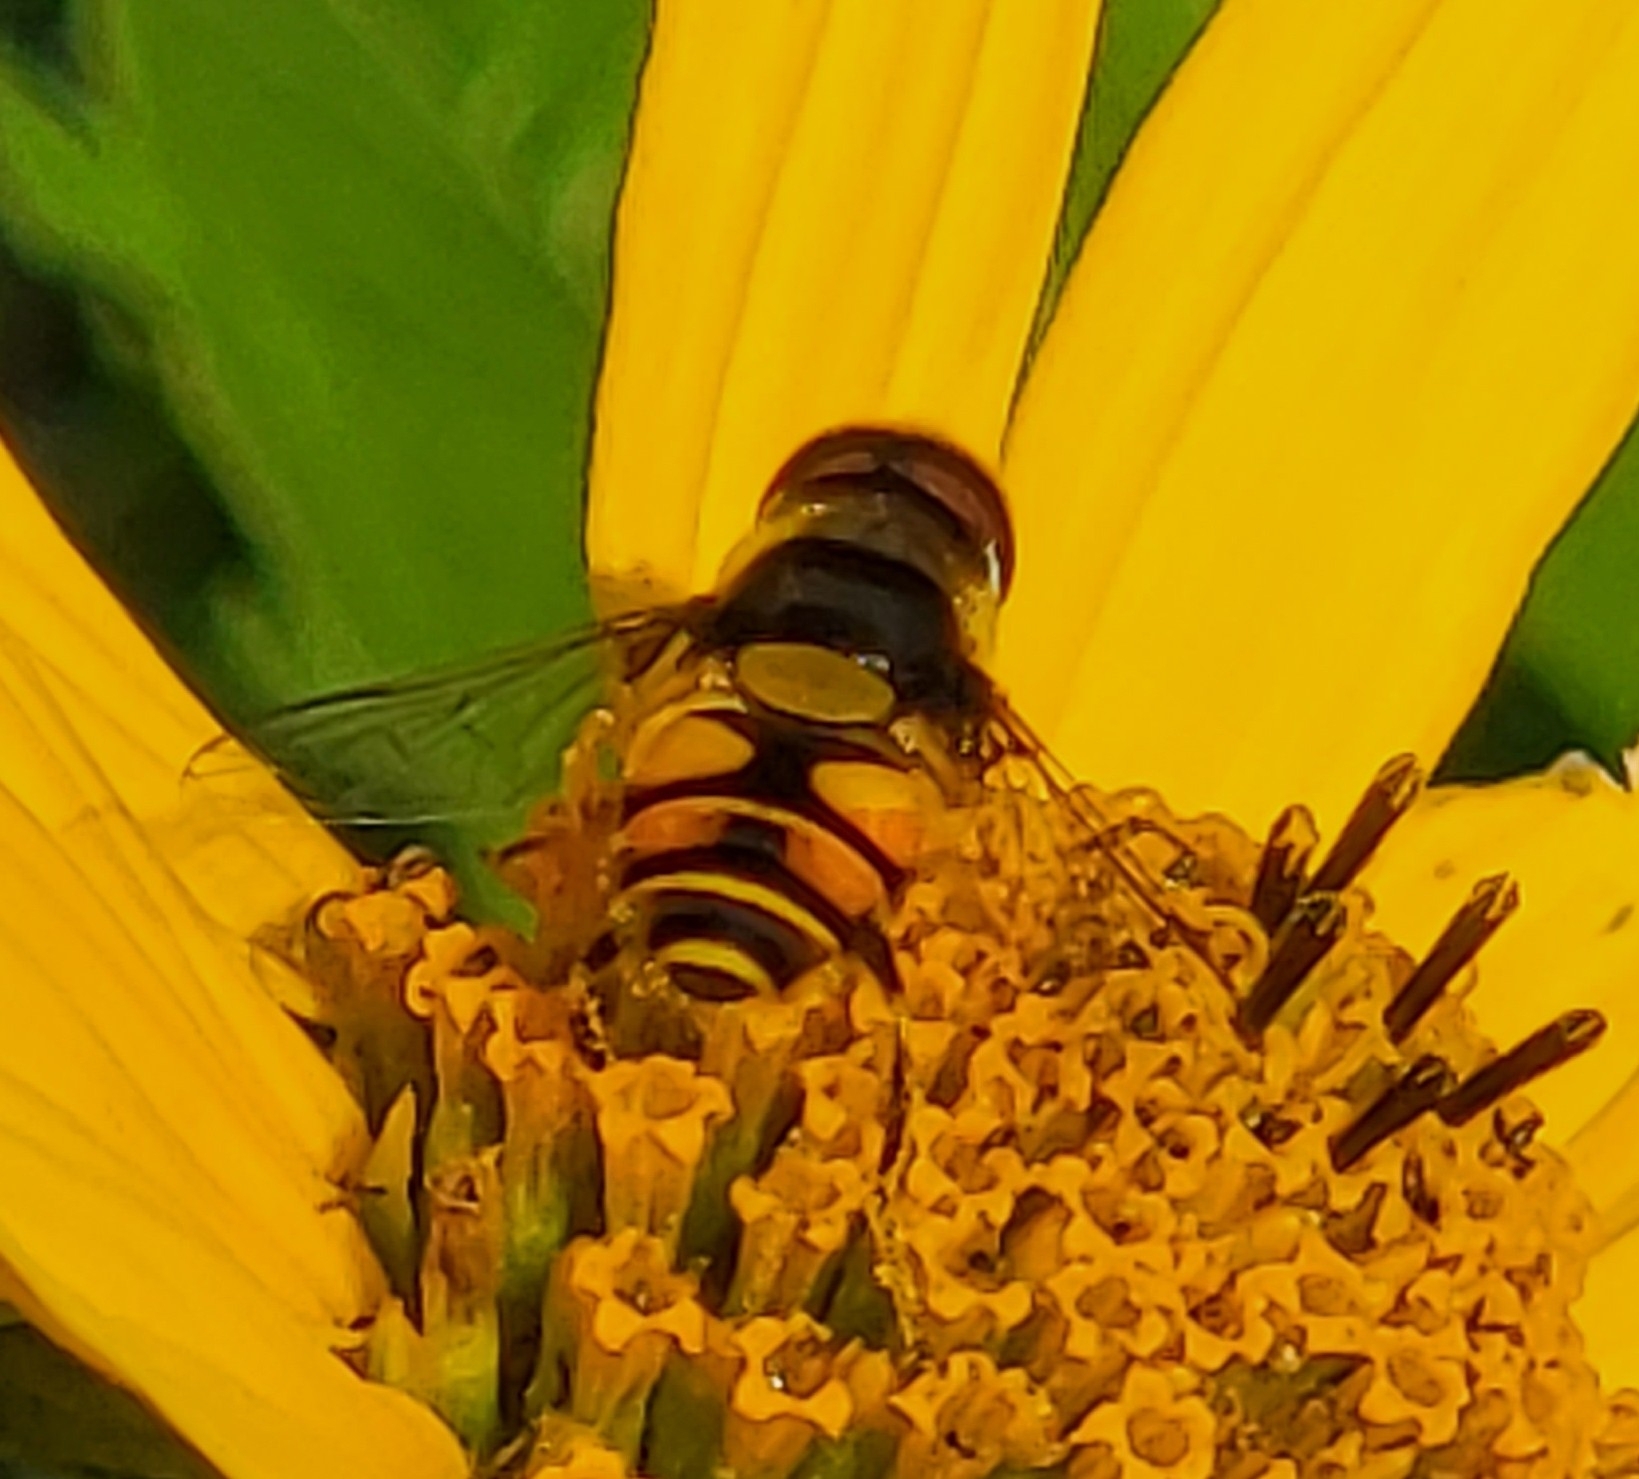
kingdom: Animalia
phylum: Arthropoda
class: Insecta
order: Diptera
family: Syrphidae
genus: Eristalis
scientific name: Eristalis transversa
